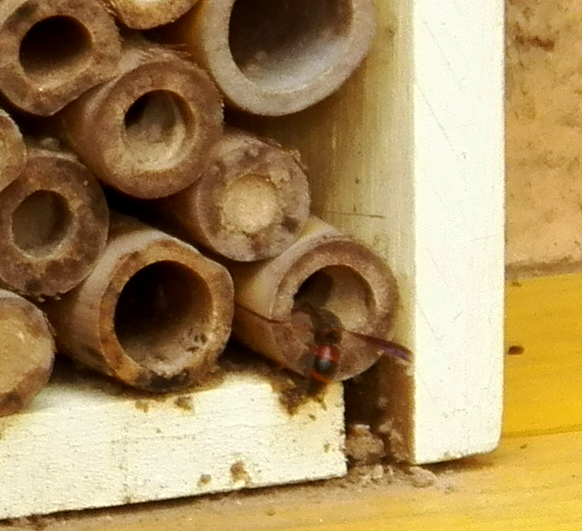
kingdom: Animalia
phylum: Arthropoda
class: Insecta
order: Hymenoptera
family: Eumenidae
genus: Pachodynerus
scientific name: Pachodynerus erynnis
